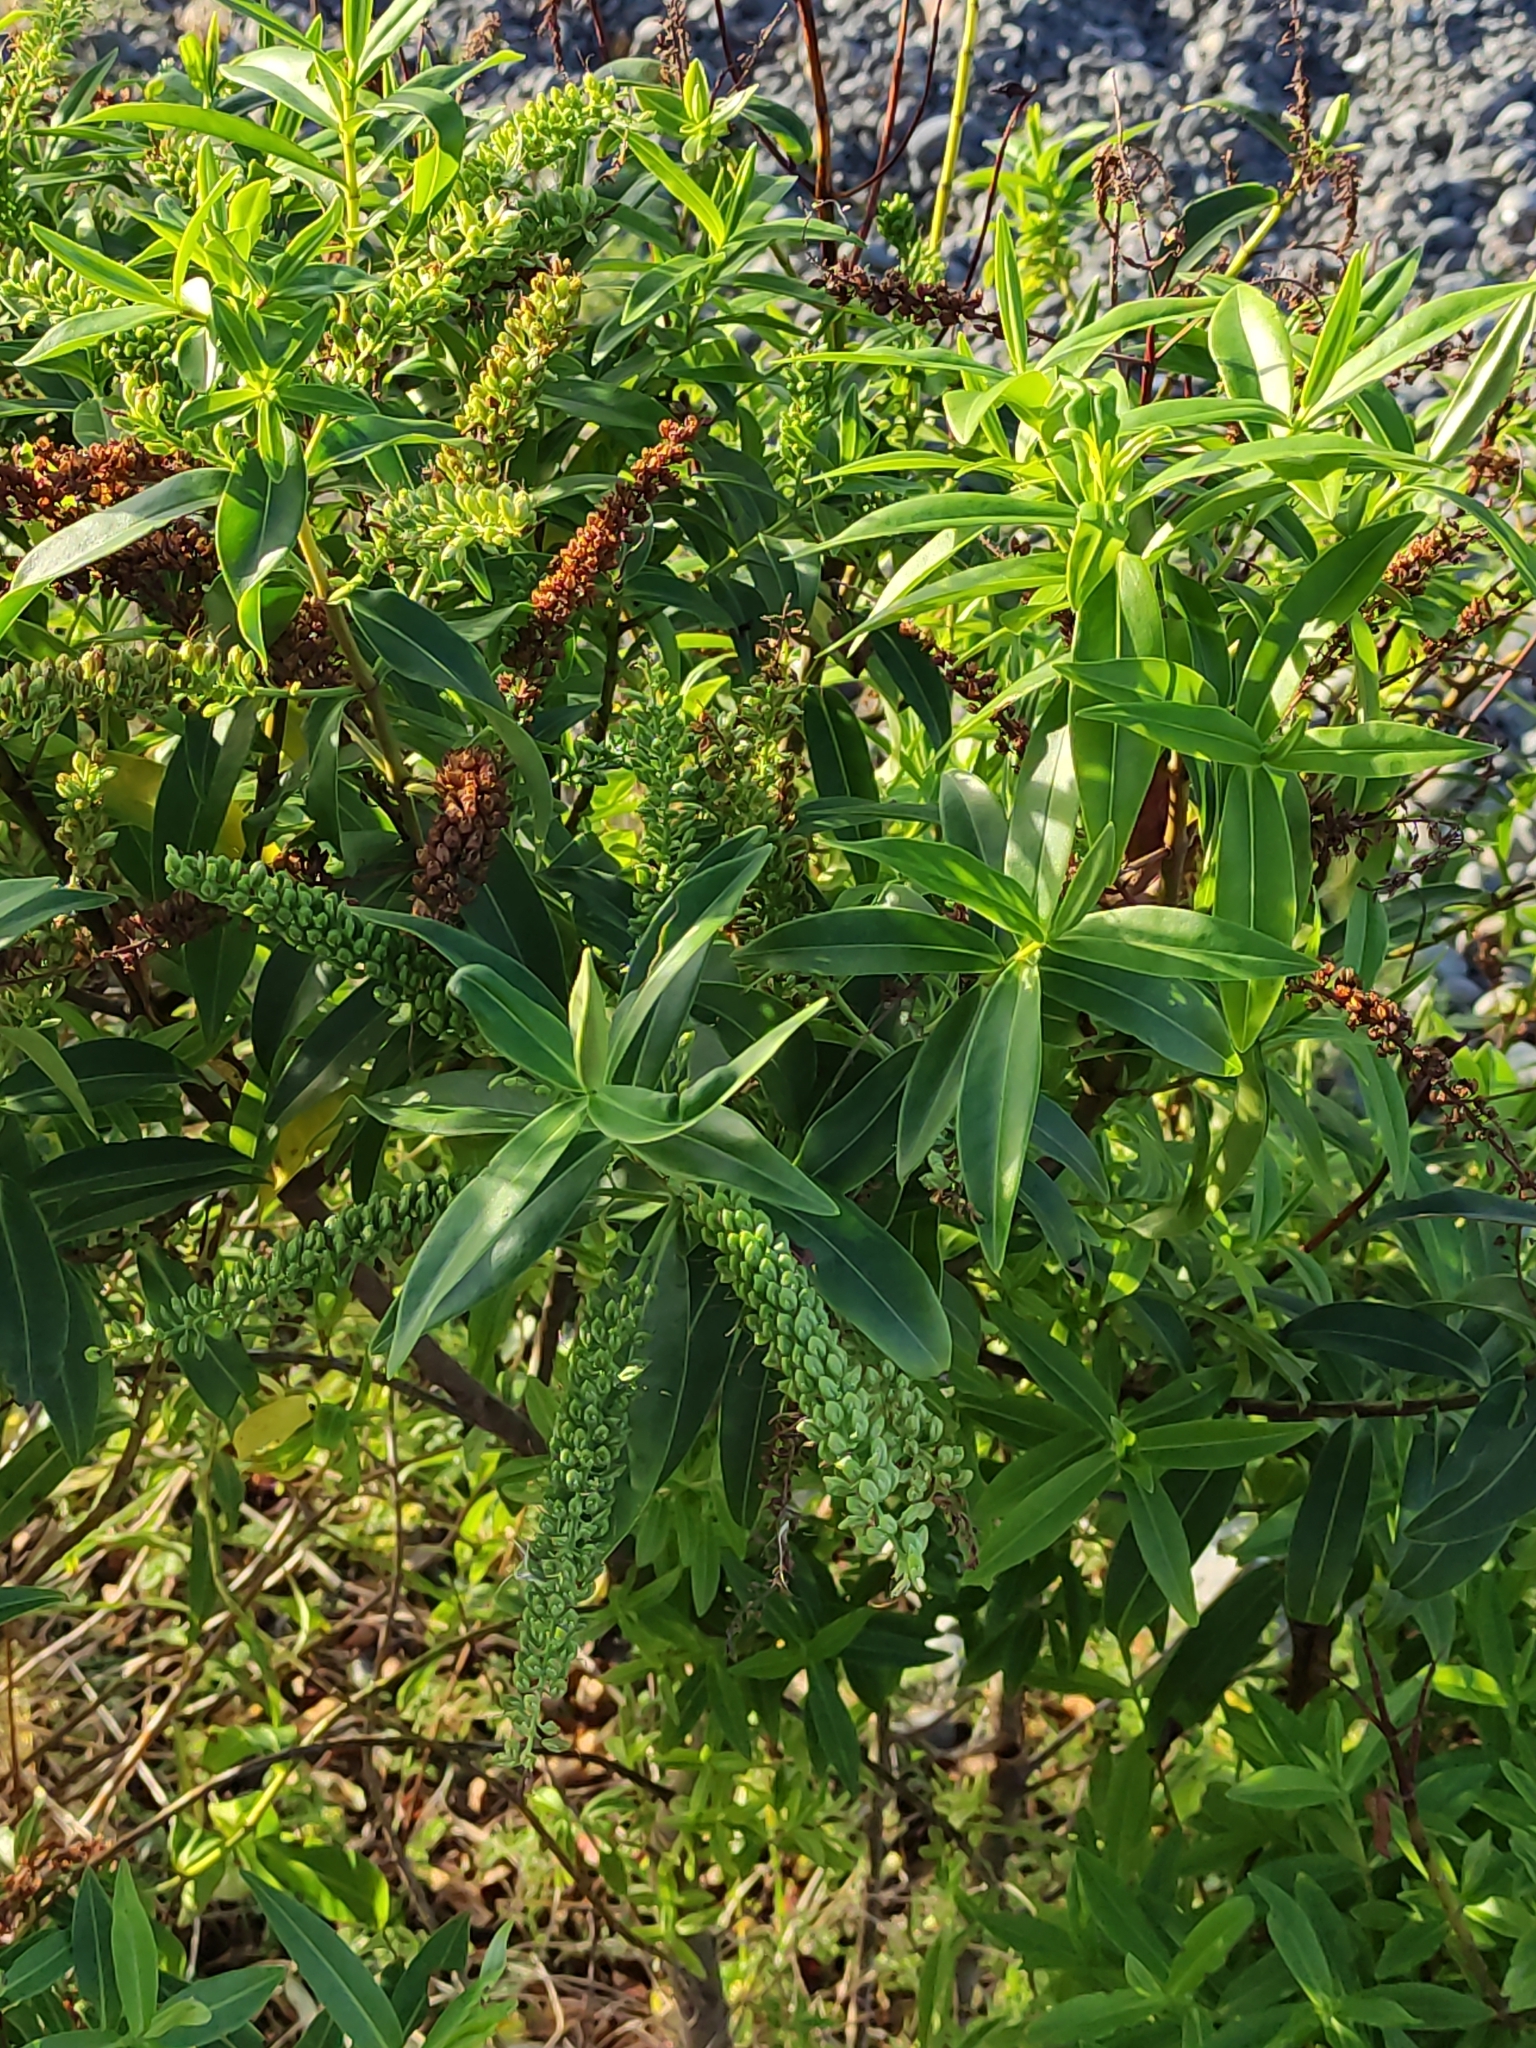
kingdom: Plantae
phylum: Tracheophyta
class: Magnoliopsida
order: Lamiales
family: Plantaginaceae
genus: Veronica
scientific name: Veronica salicifolia
